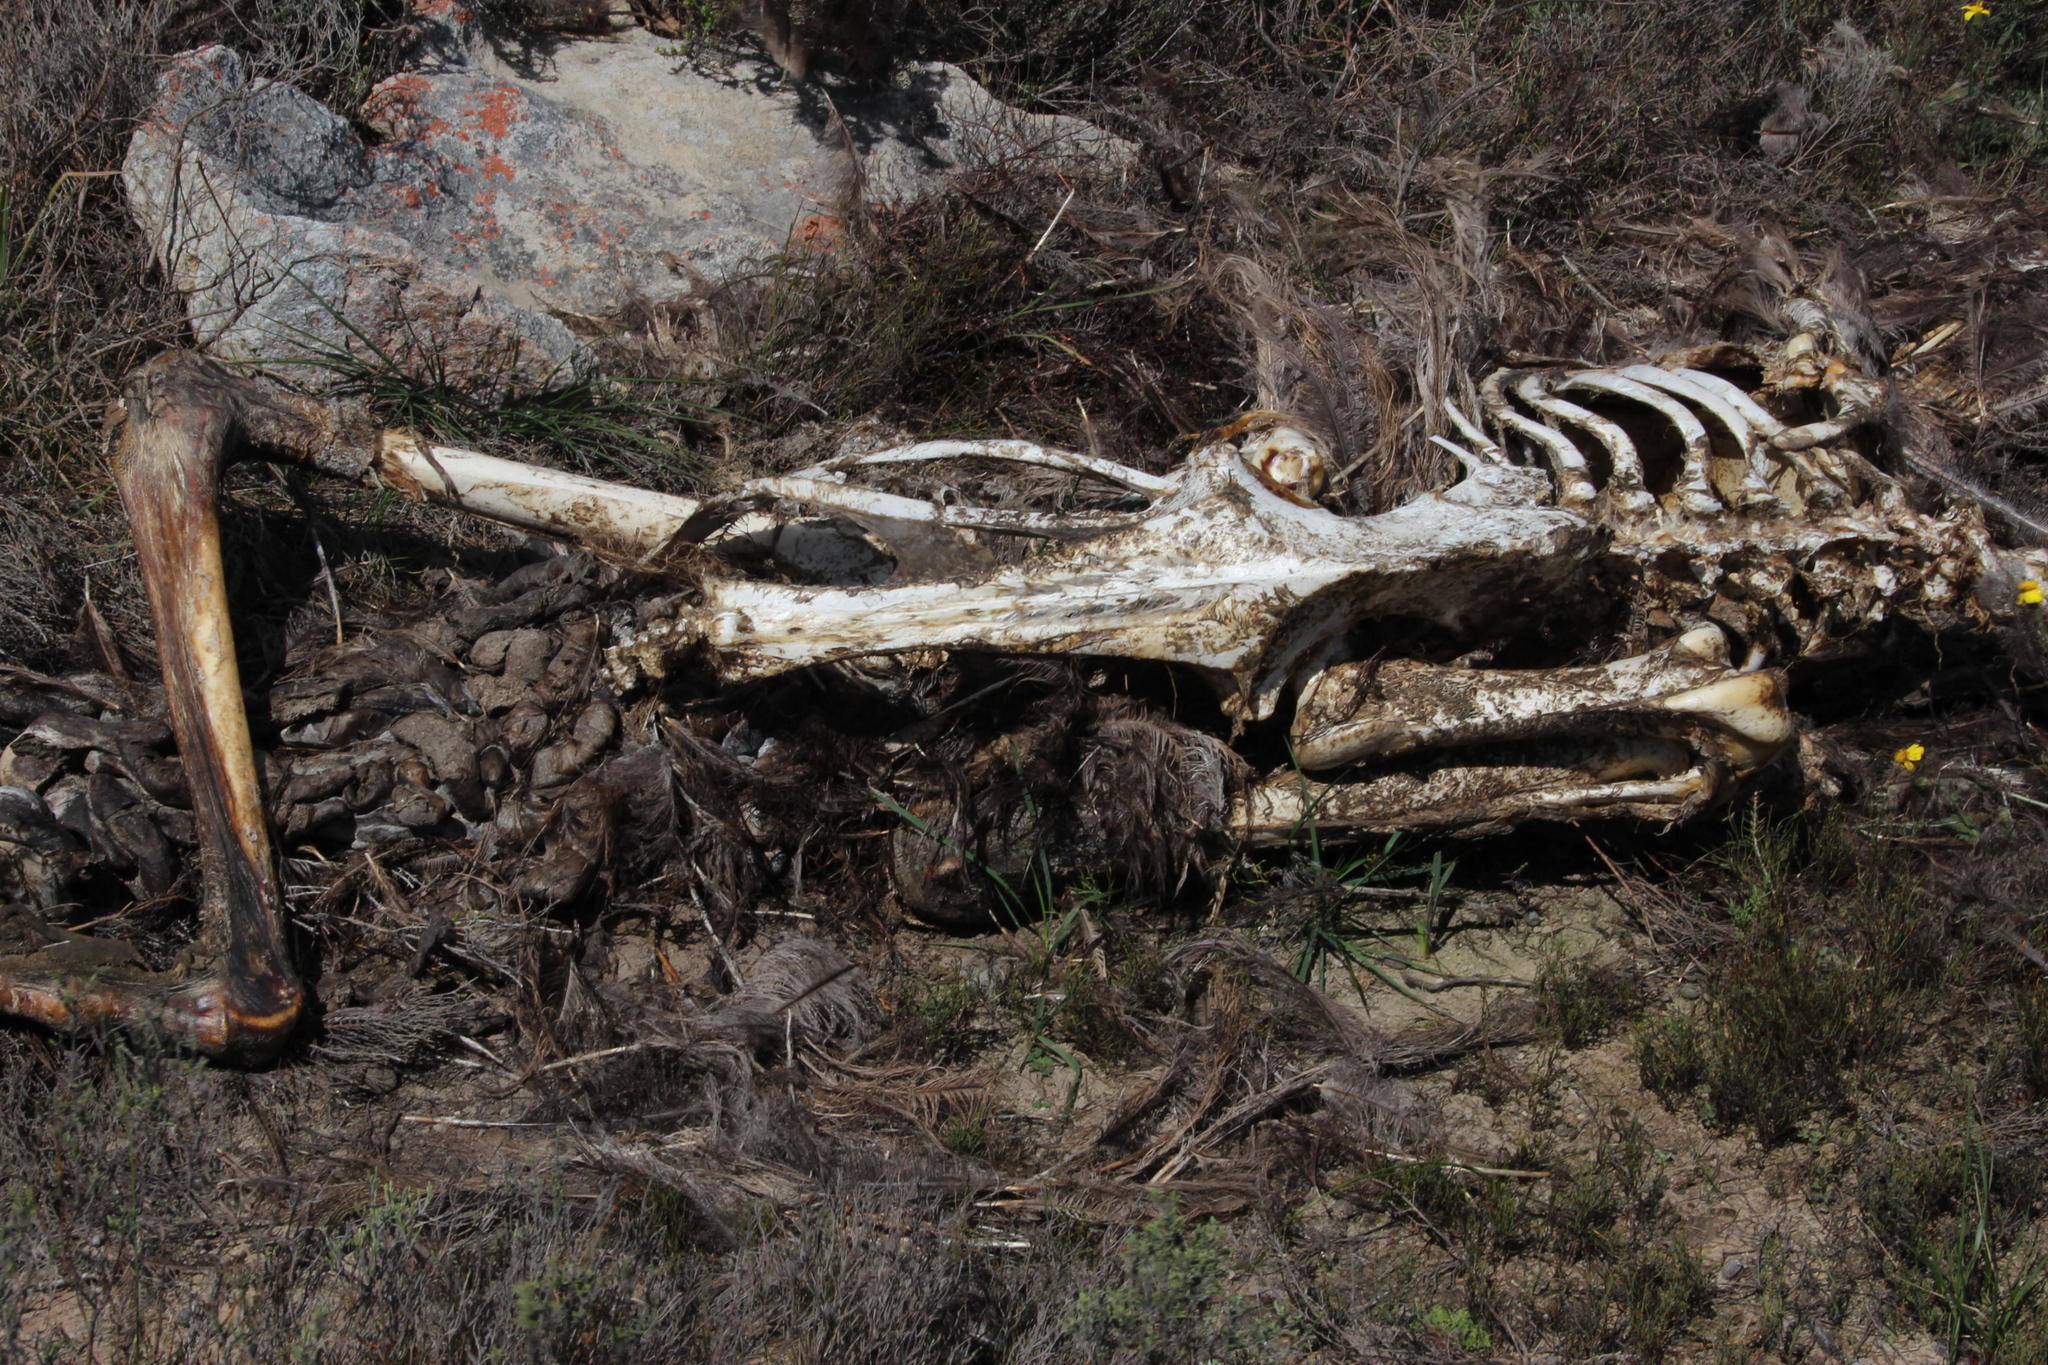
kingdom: Animalia
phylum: Chordata
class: Aves
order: Struthioniformes
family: Struthionidae
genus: Struthio
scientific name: Struthio camelus
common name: Common ostrich
